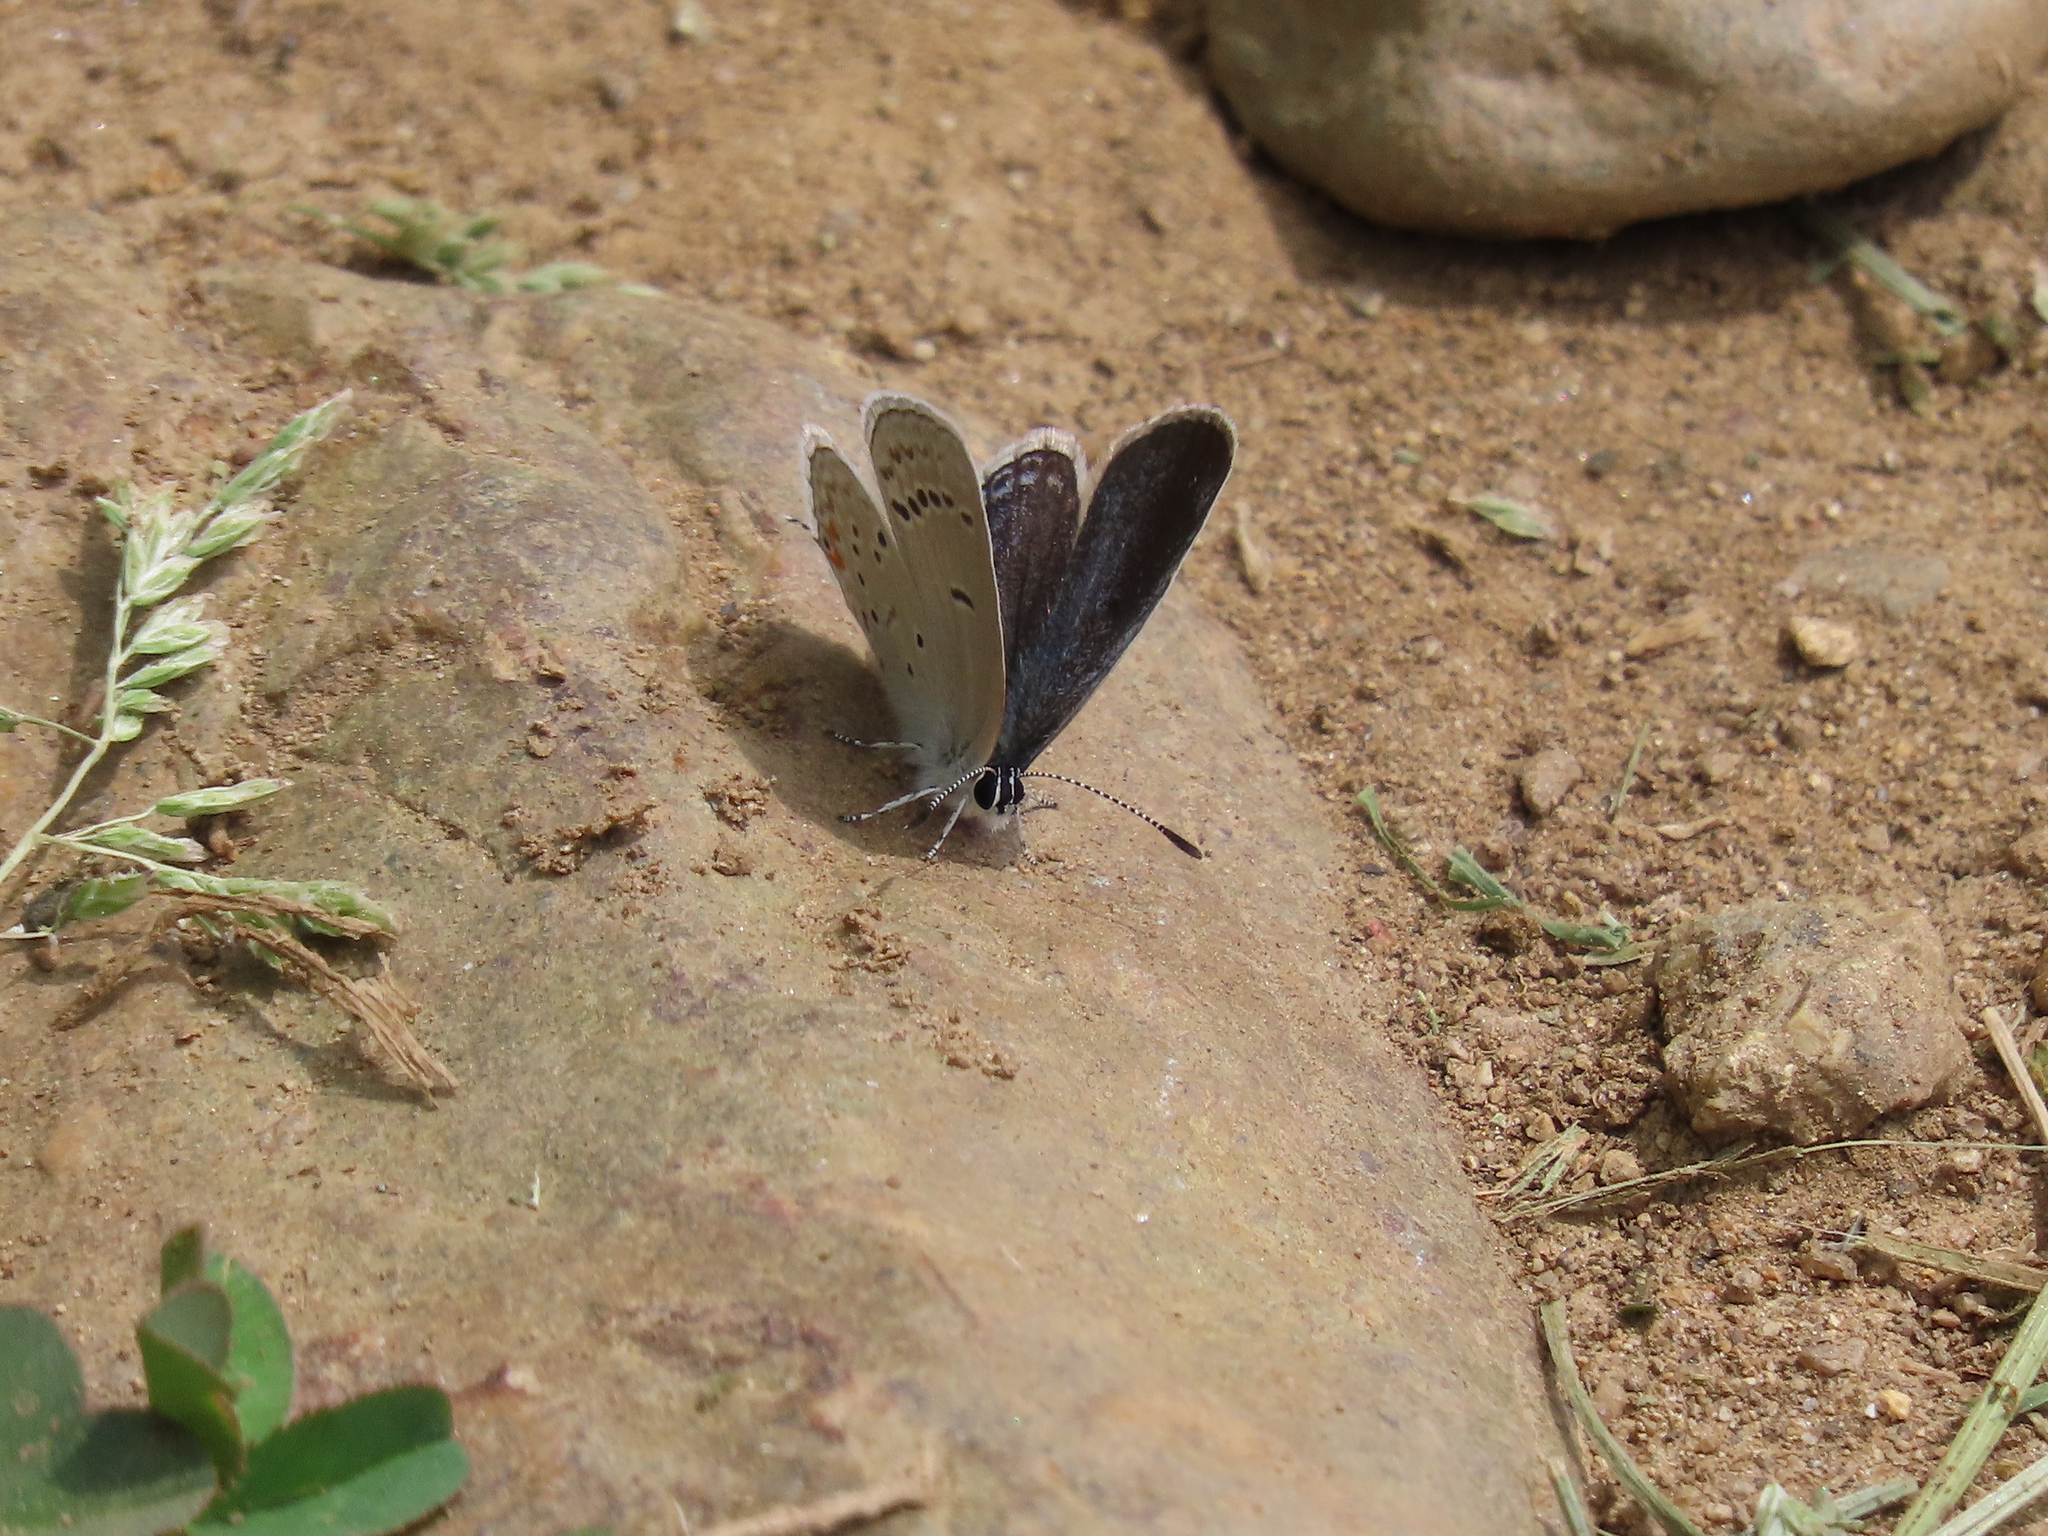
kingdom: Animalia
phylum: Arthropoda
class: Insecta
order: Lepidoptera
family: Lycaenidae
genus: Elkalyce
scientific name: Elkalyce comyntas
